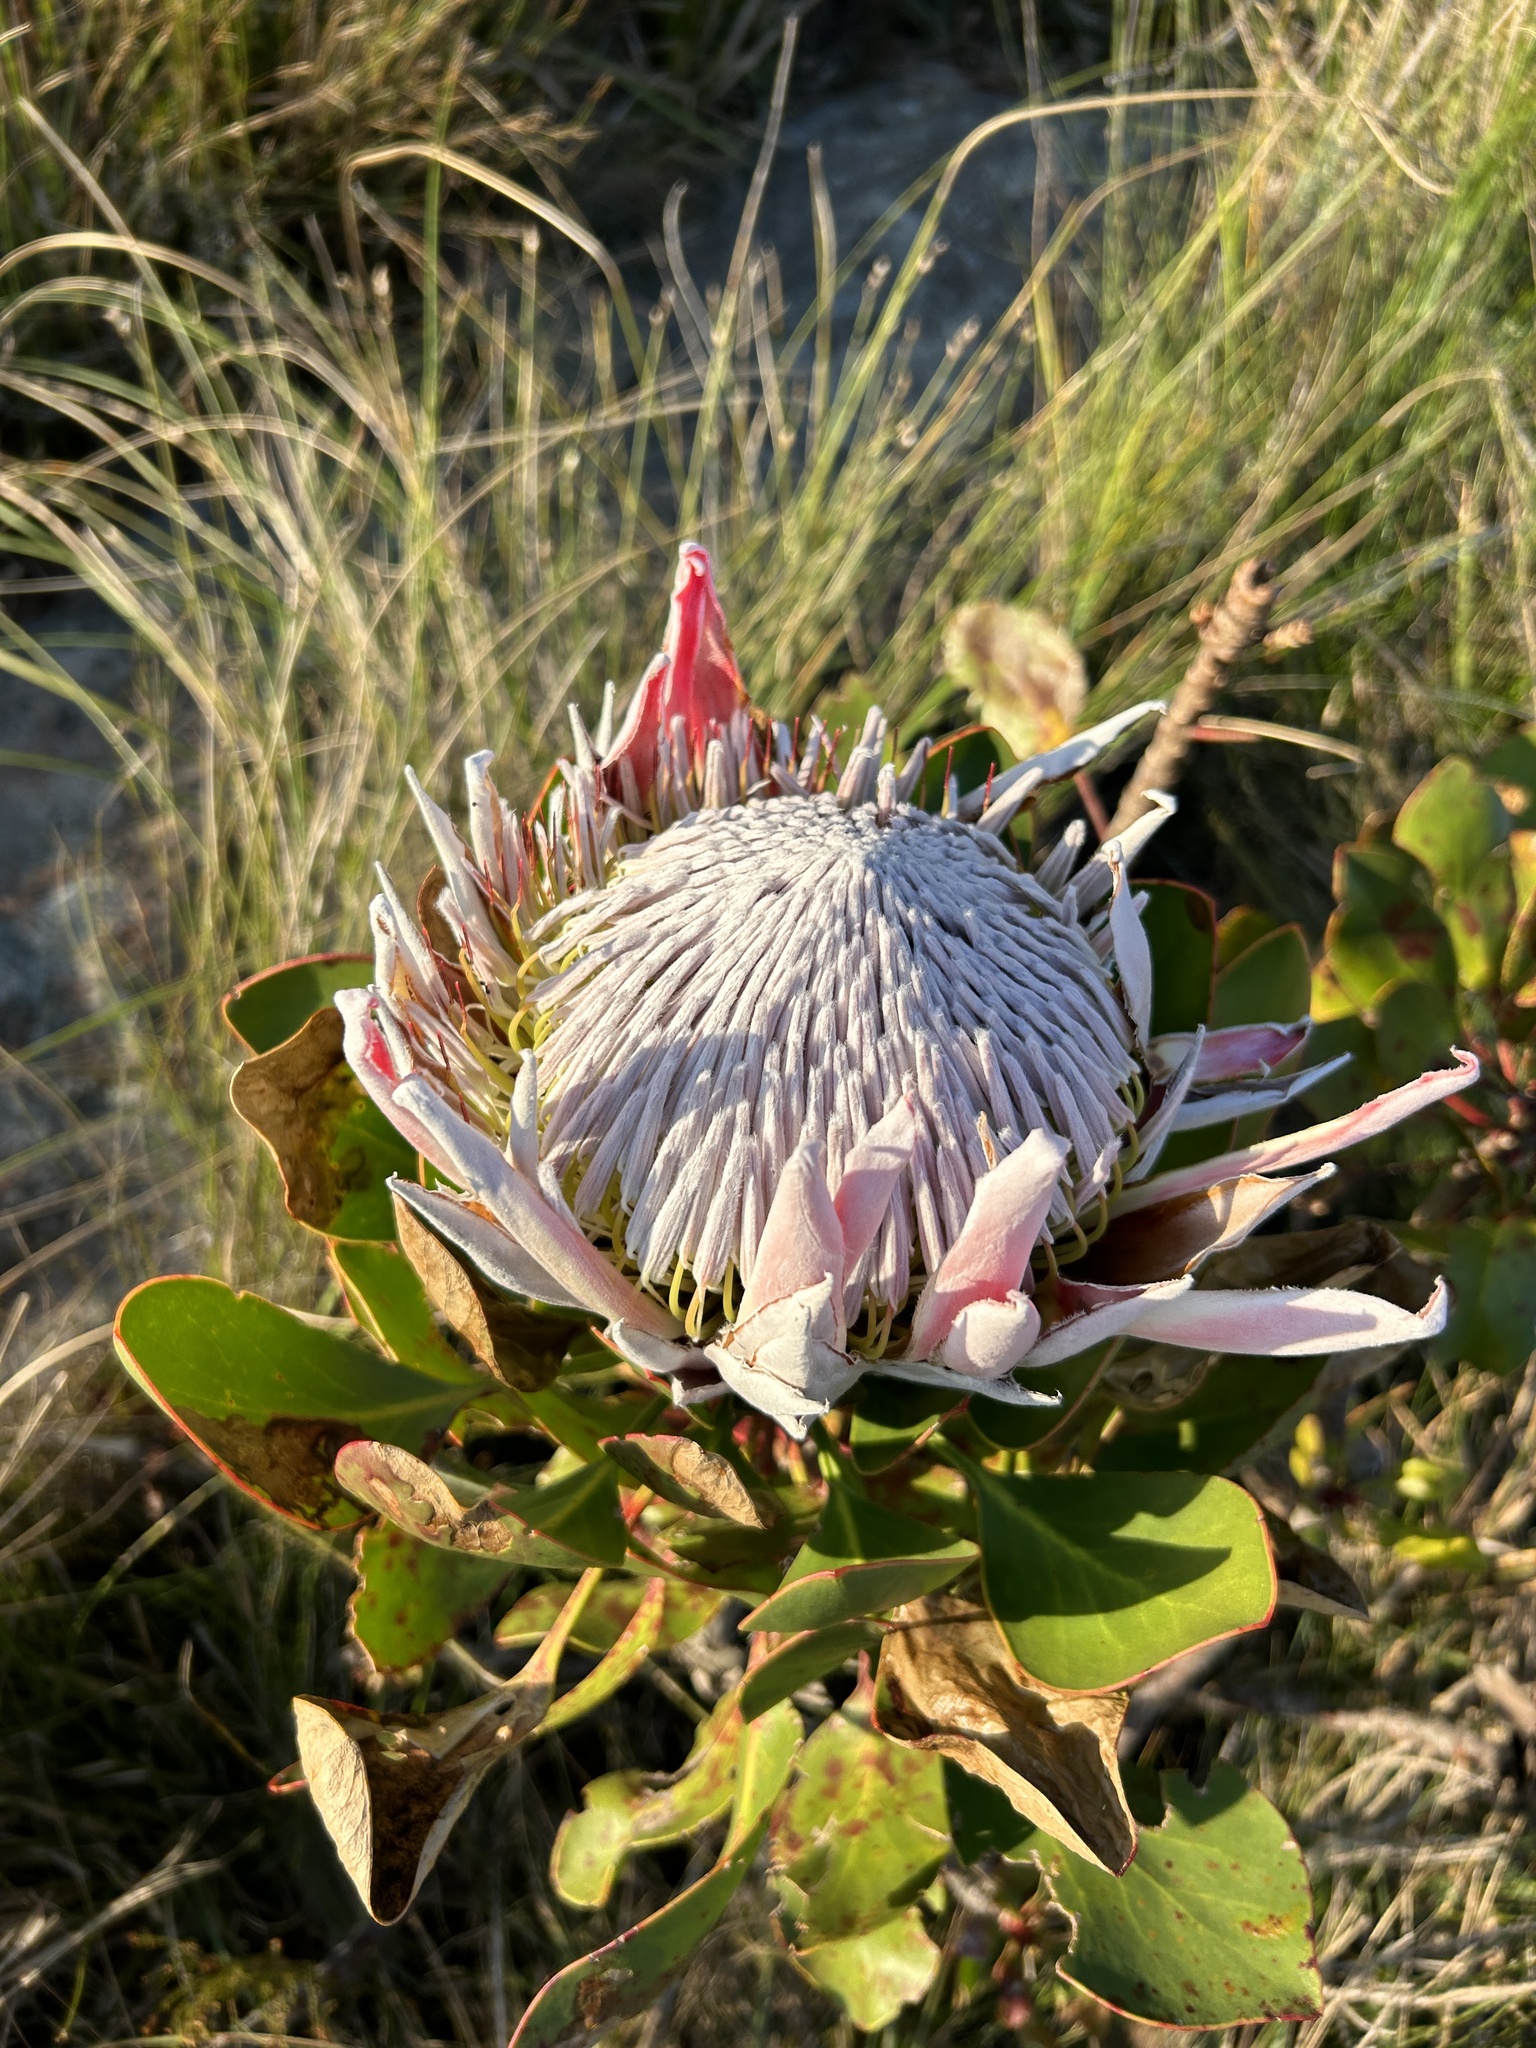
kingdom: Plantae
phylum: Tracheophyta
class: Magnoliopsida
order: Proteales
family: Proteaceae
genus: Protea
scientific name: Protea cynaroides
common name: King protea
